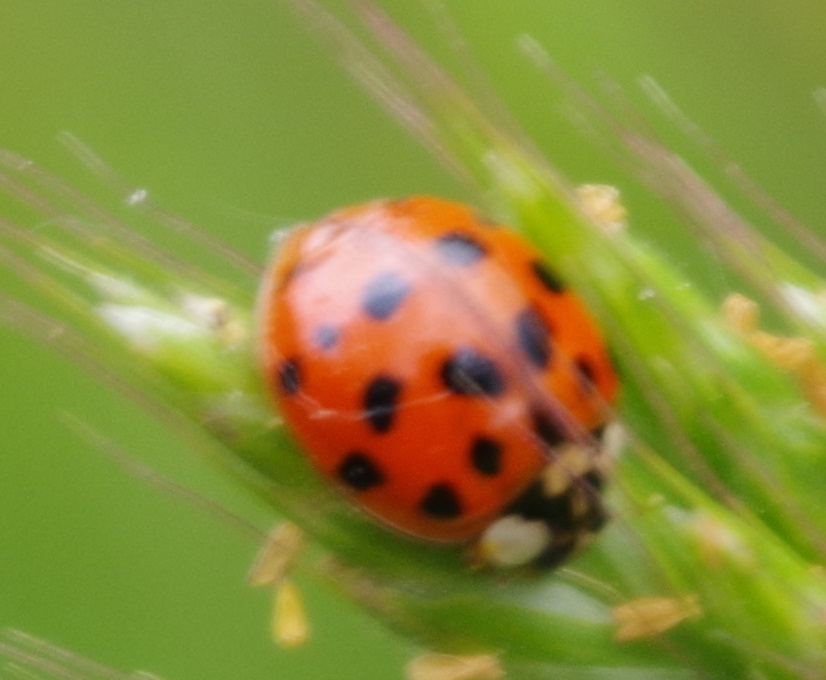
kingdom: Animalia
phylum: Arthropoda
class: Insecta
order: Coleoptera
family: Coccinellidae
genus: Harmonia
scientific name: Harmonia axyridis
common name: Harlequin ladybird
